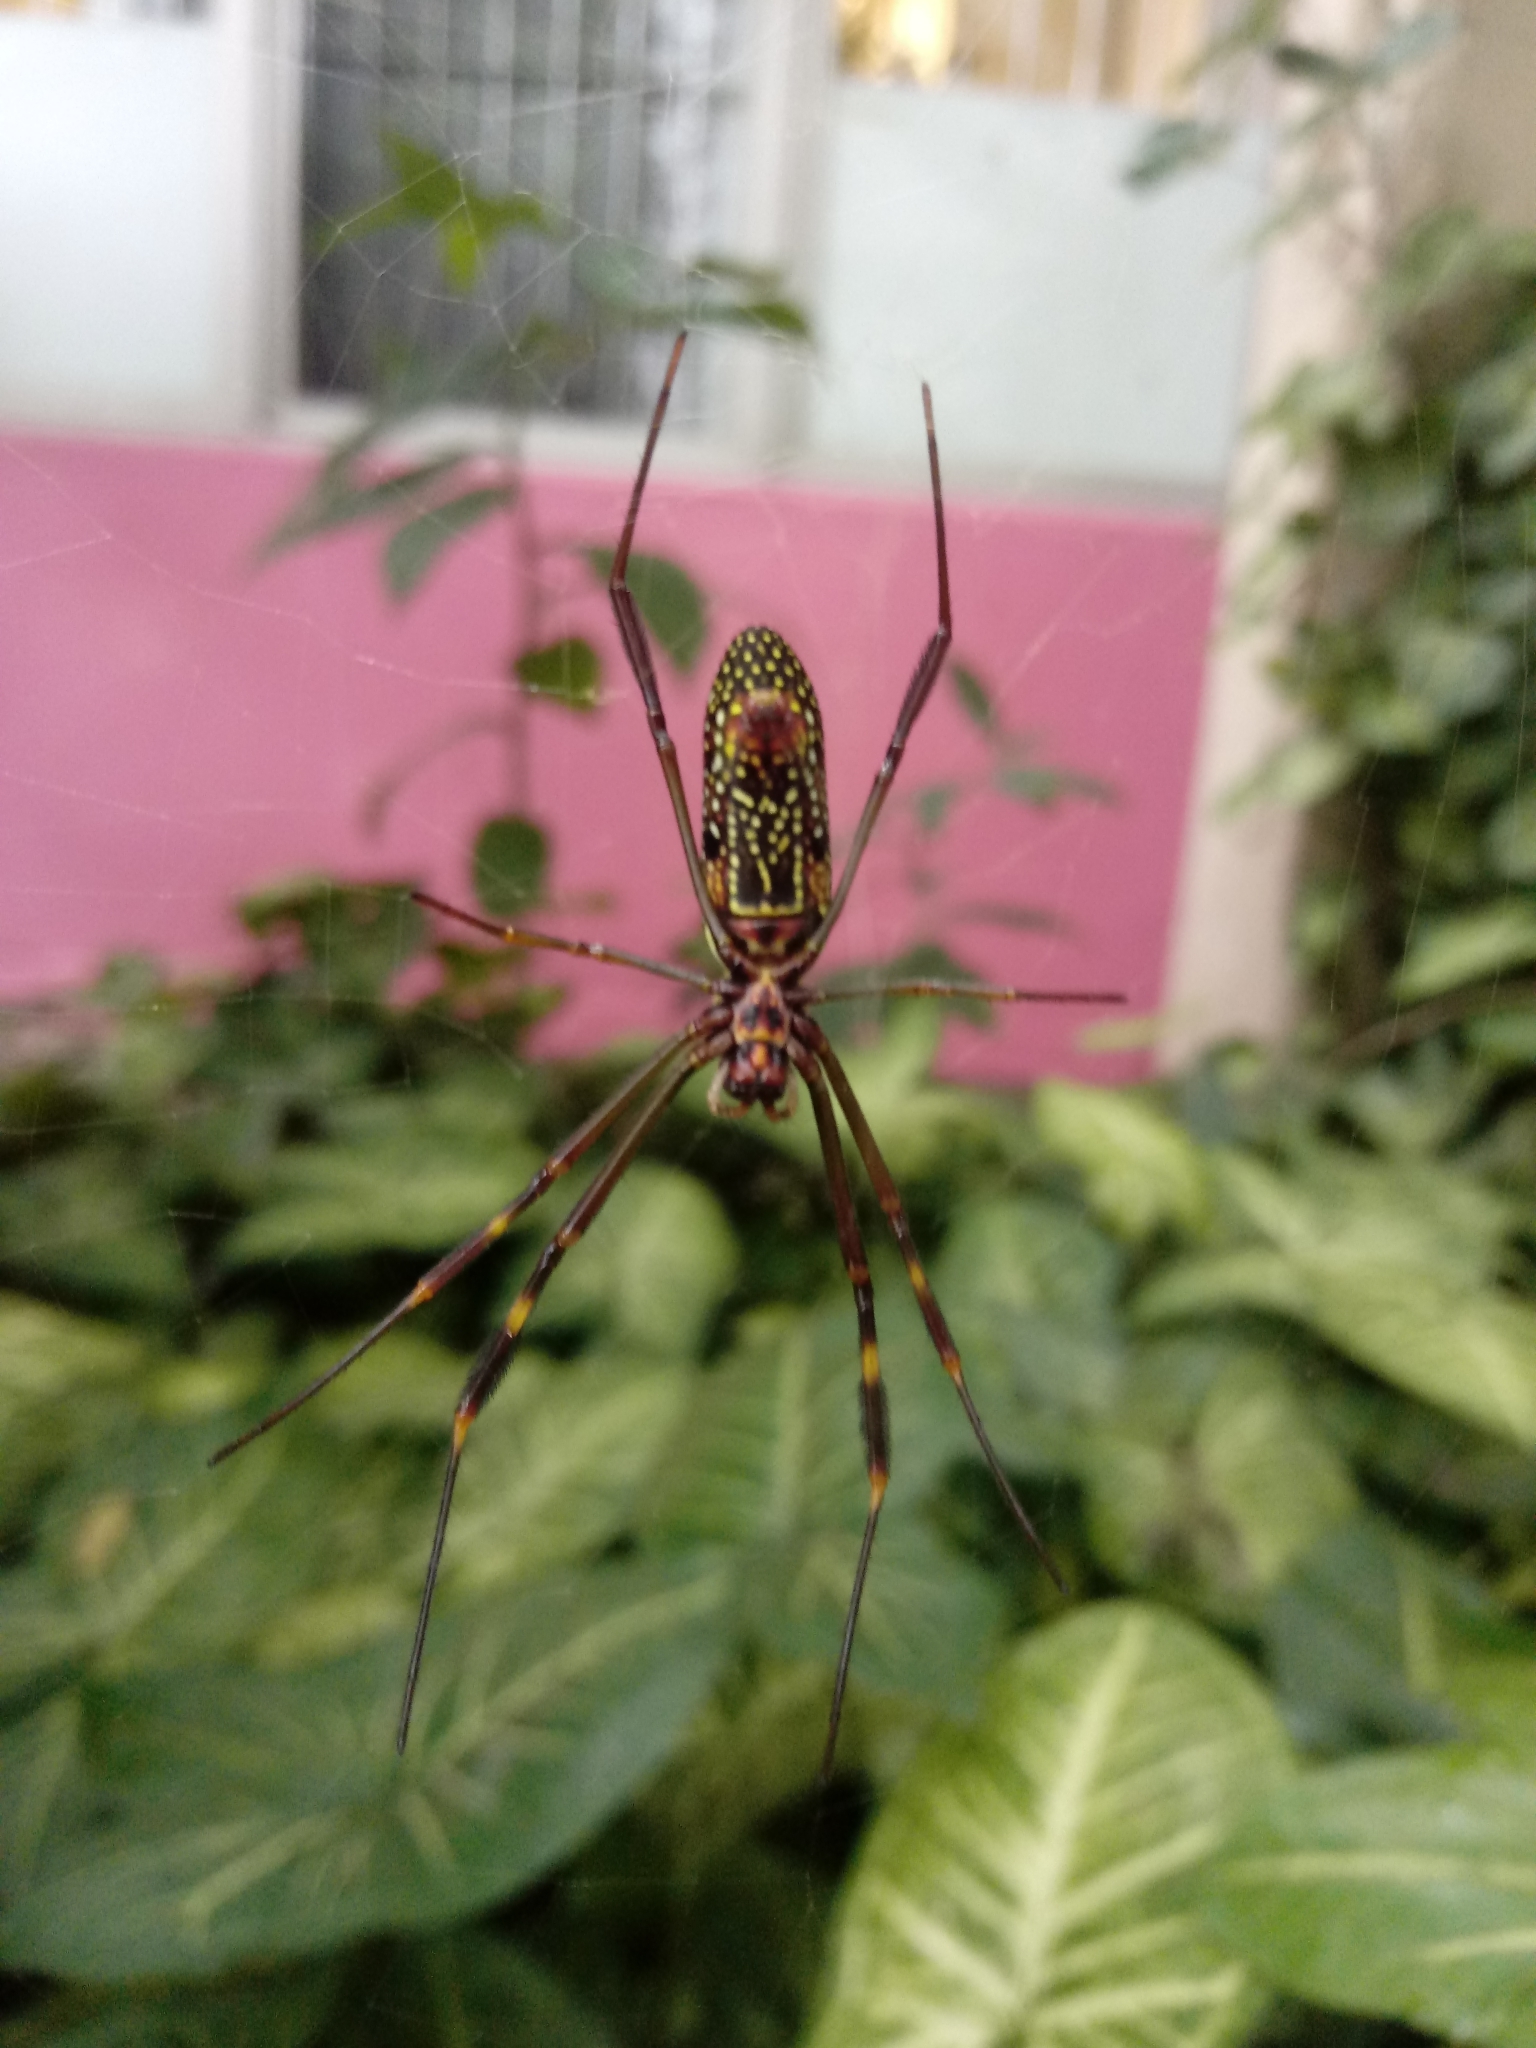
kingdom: Animalia
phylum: Arthropoda
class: Arachnida
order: Araneae
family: Araneidae
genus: Trichonephila
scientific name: Trichonephila clavipes
